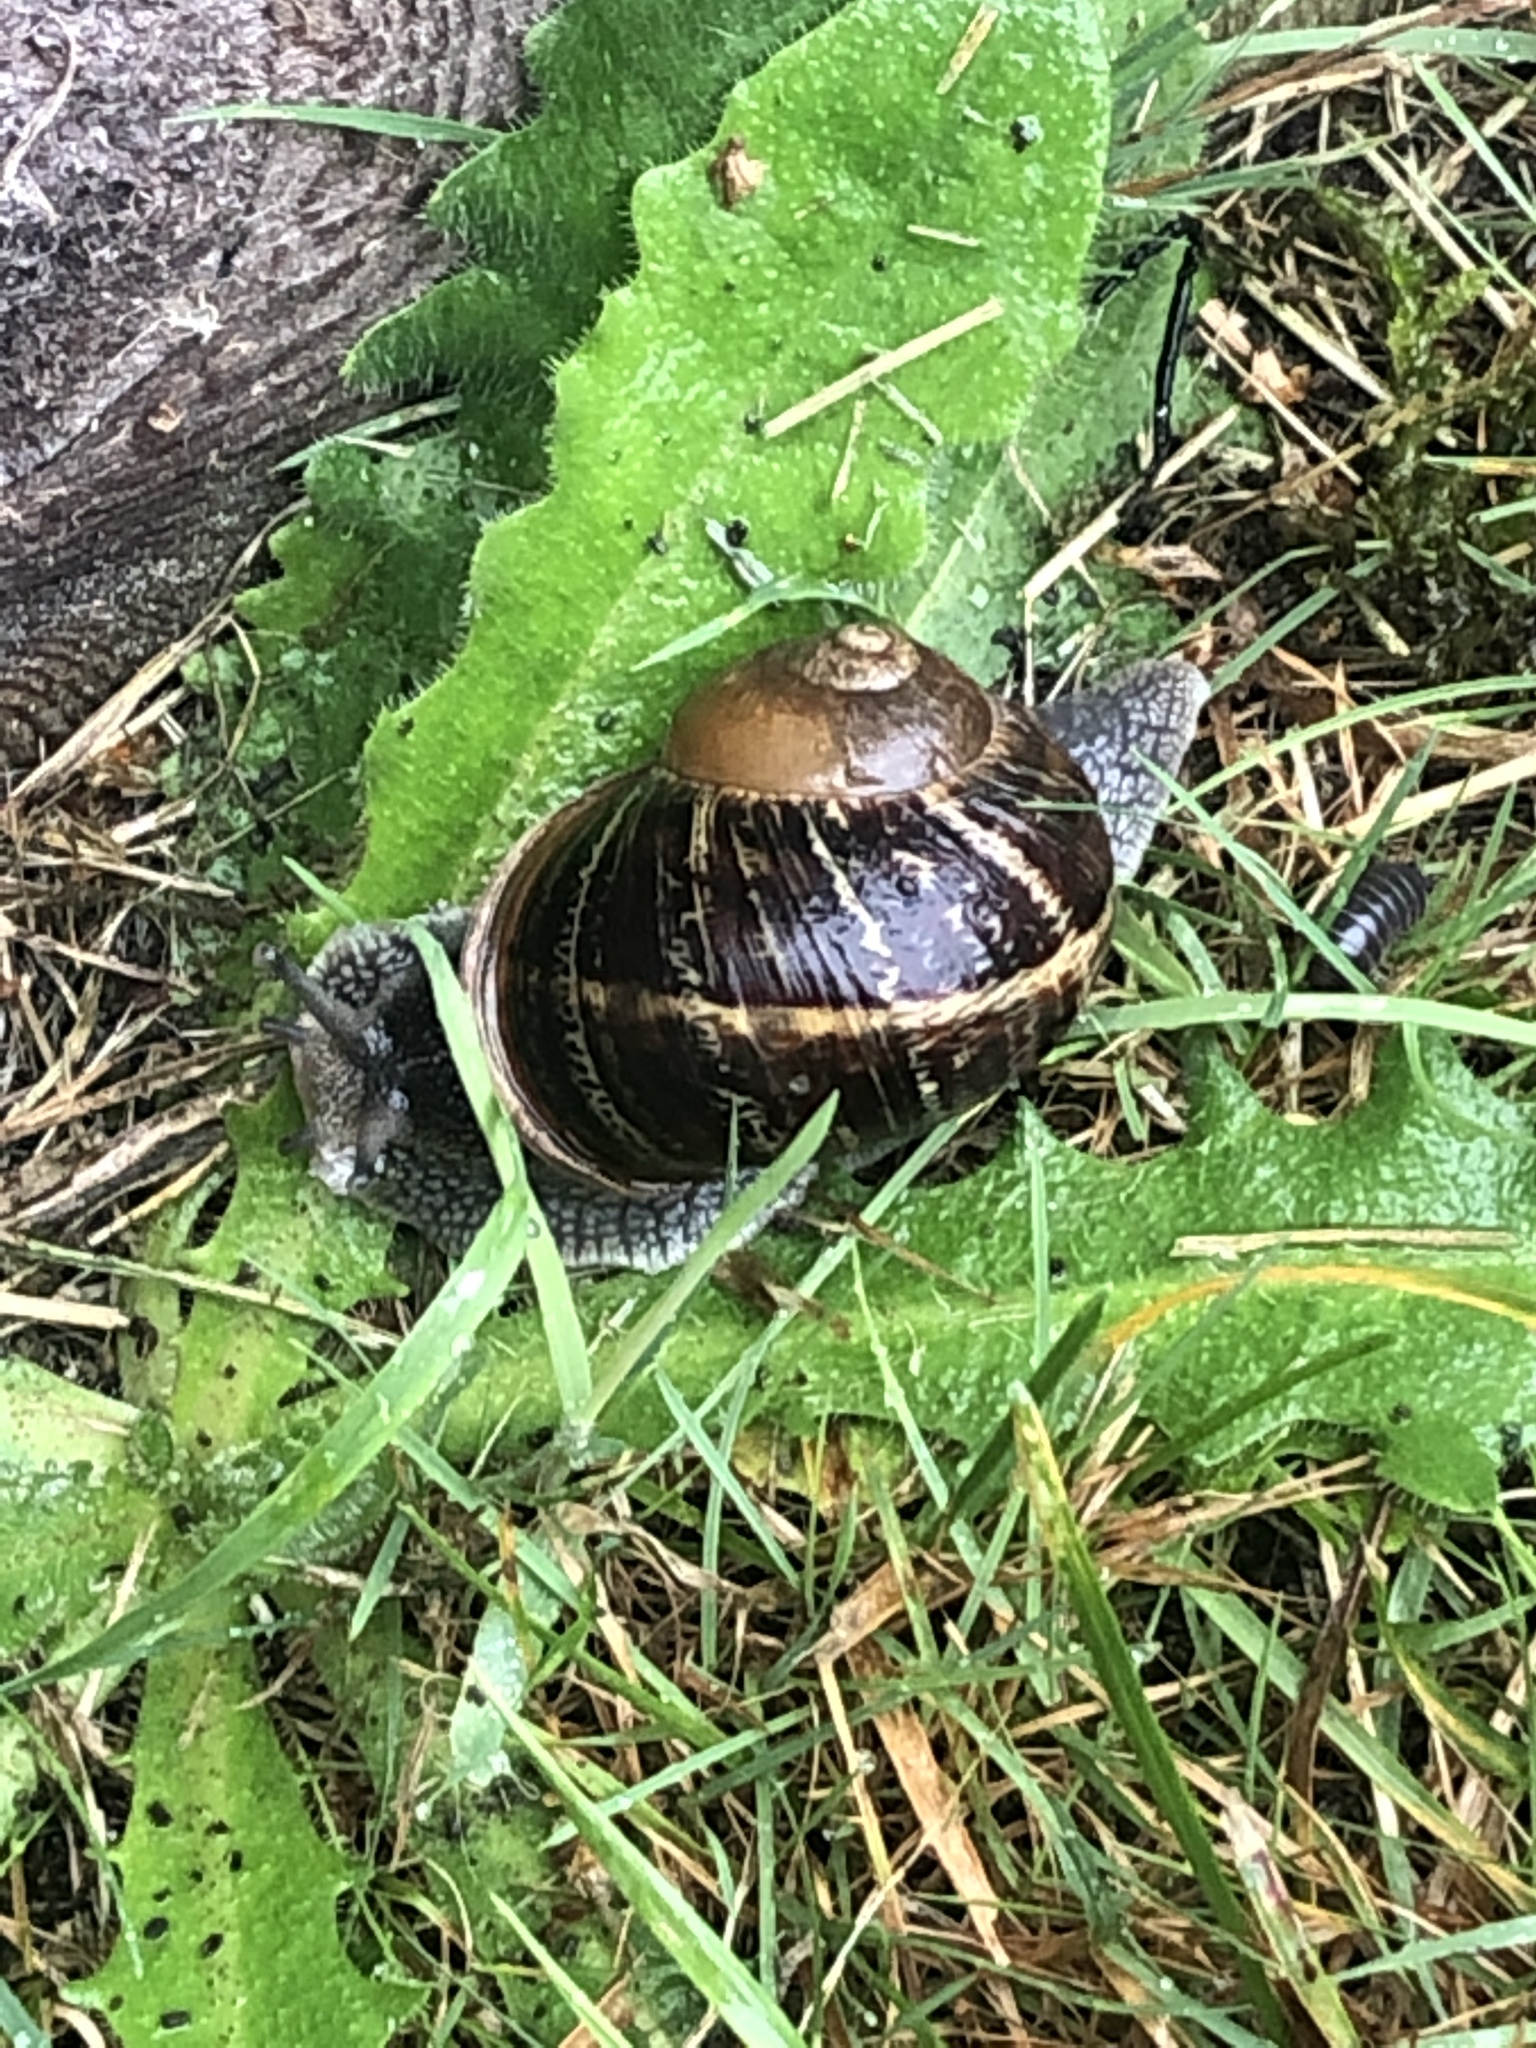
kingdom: Animalia
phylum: Mollusca
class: Gastropoda
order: Stylommatophora
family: Helicidae
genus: Cornu
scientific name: Cornu aspersum
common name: Brown garden snail
